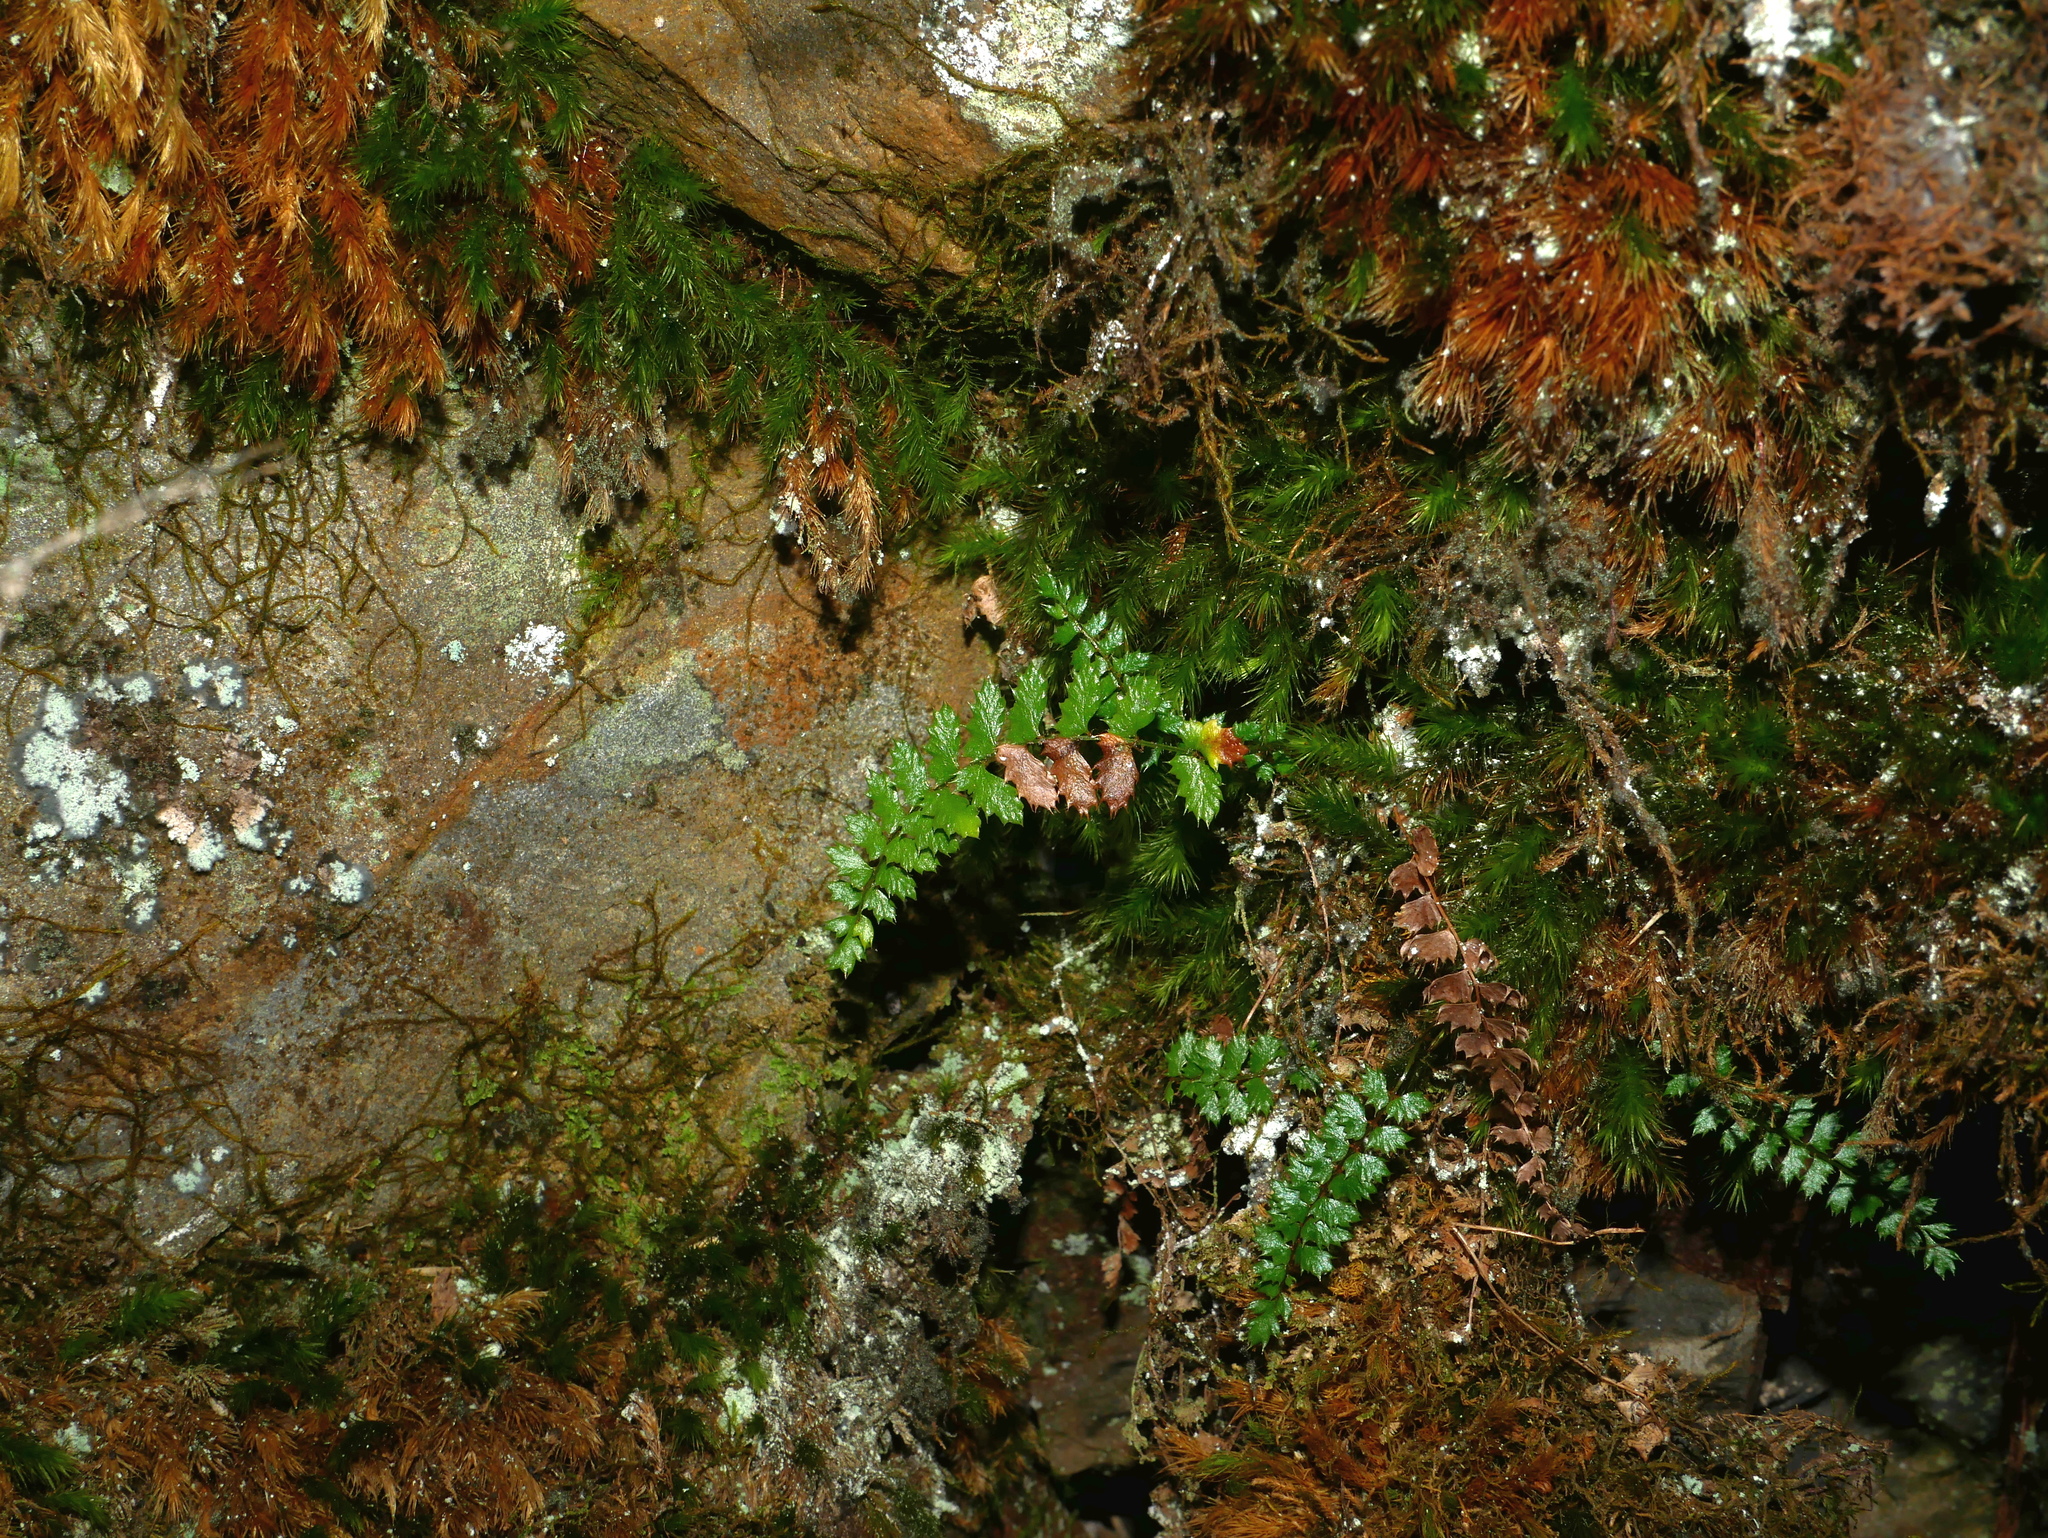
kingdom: Plantae
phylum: Tracheophyta
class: Polypodiopsida
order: Polypodiales
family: Dryopteridaceae
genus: Polystichum
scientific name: Polystichum atkinsonii
